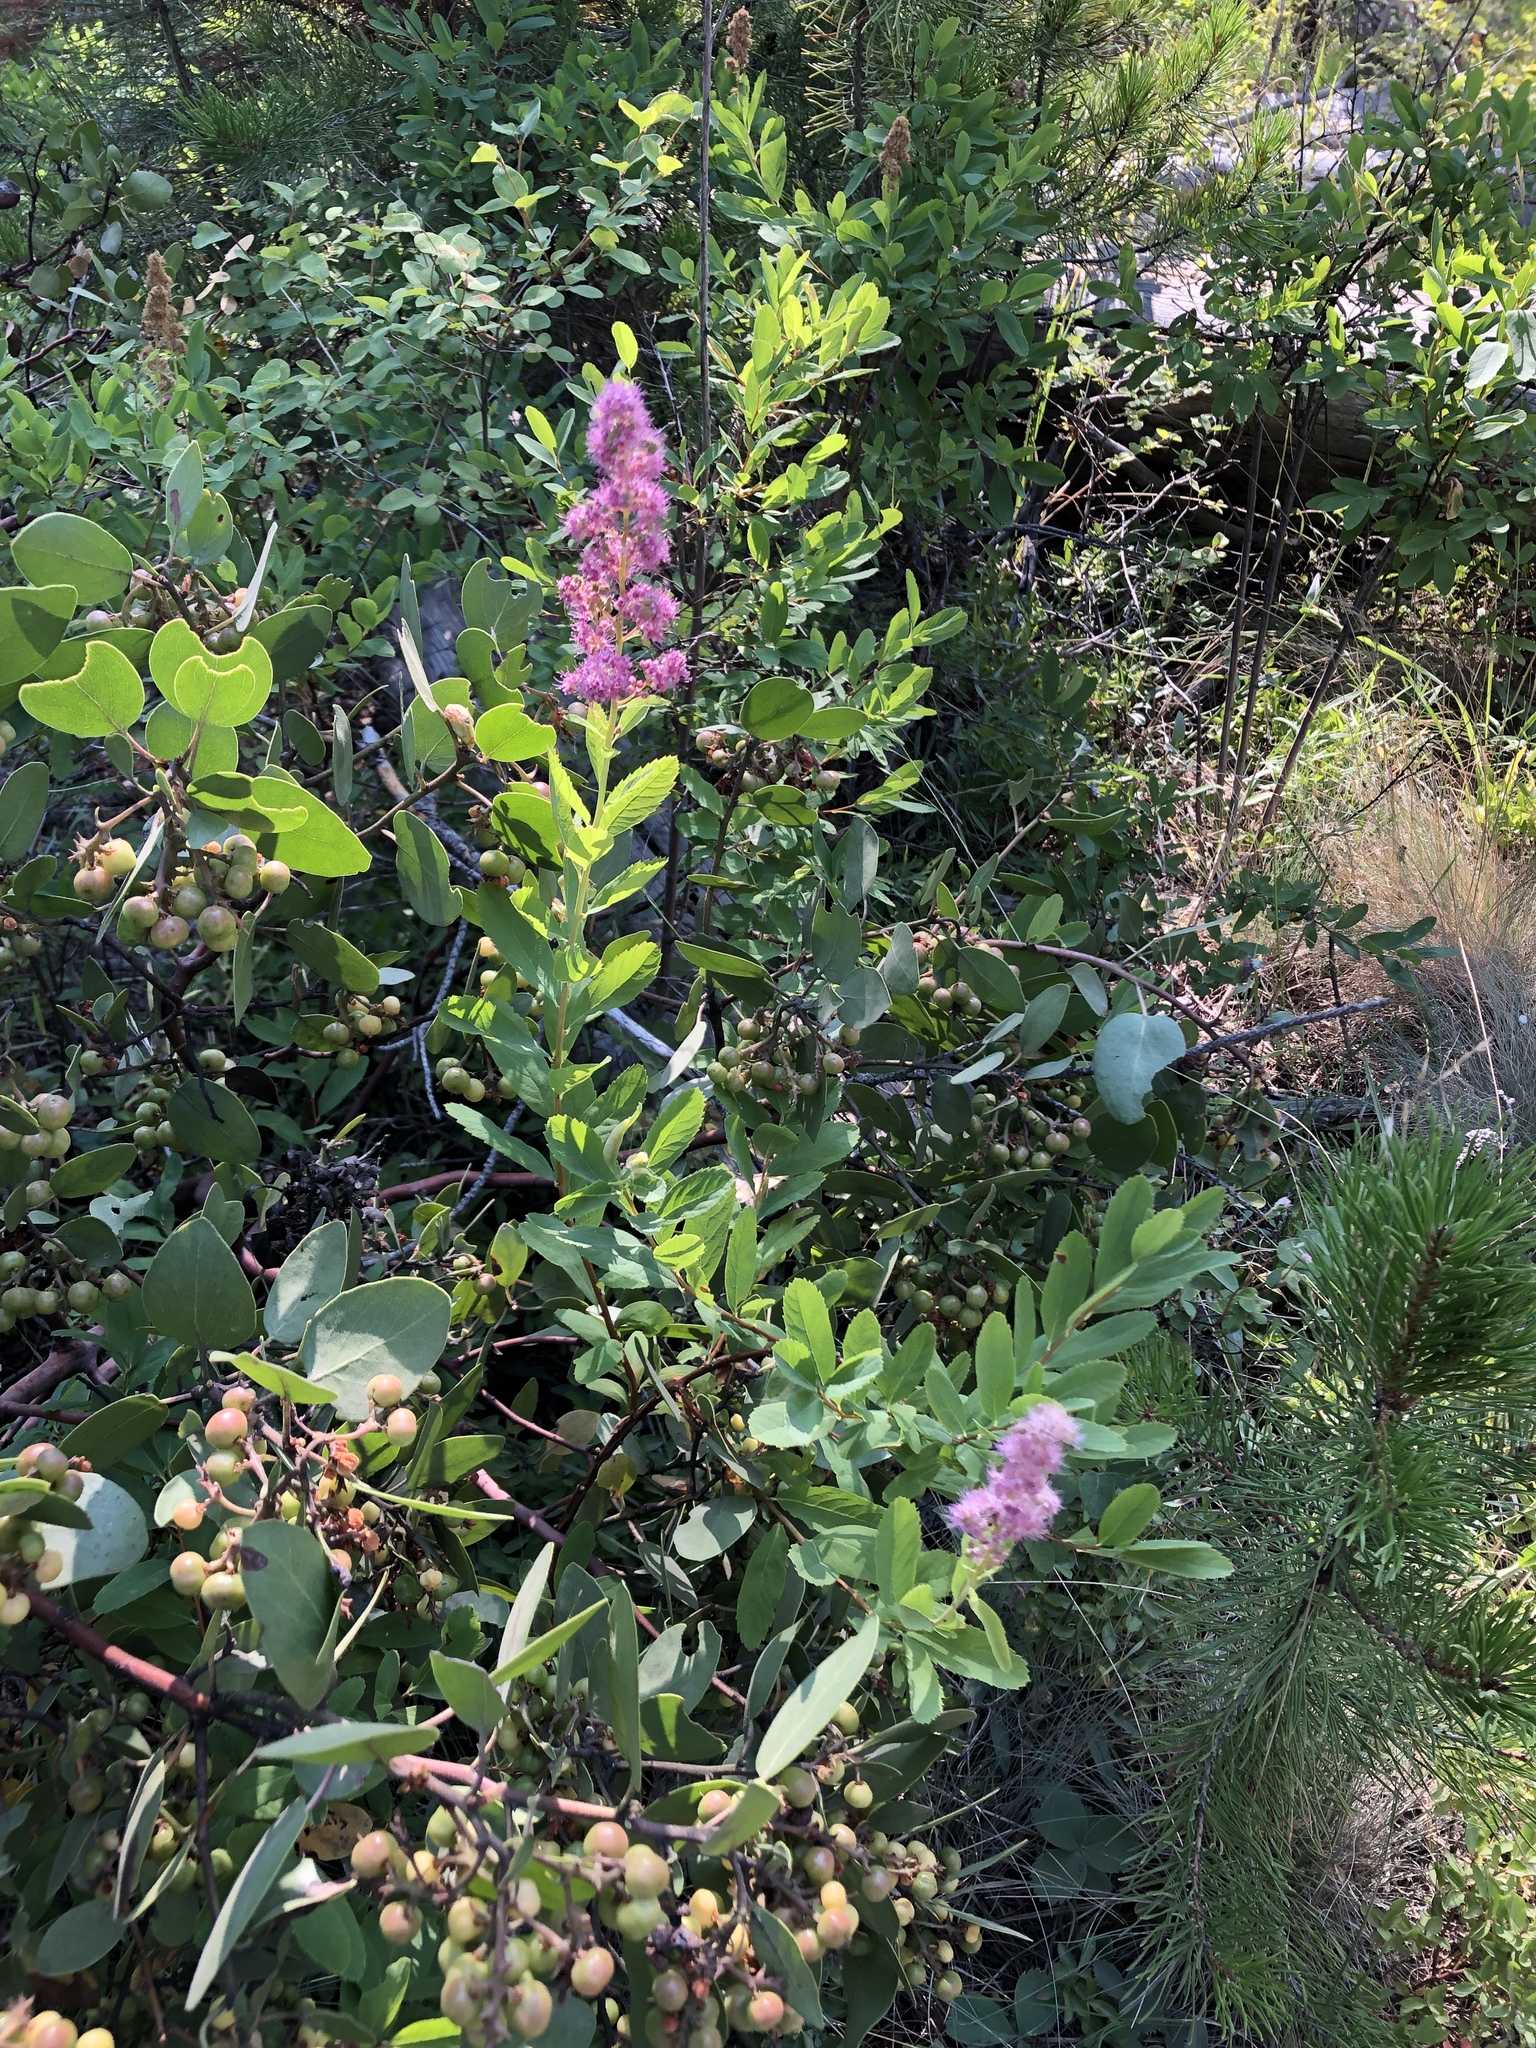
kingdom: Plantae
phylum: Tracheophyta
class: Magnoliopsida
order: Rosales
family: Rosaceae
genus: Spiraea
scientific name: Spiraea douglasii
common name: Steeplebush
